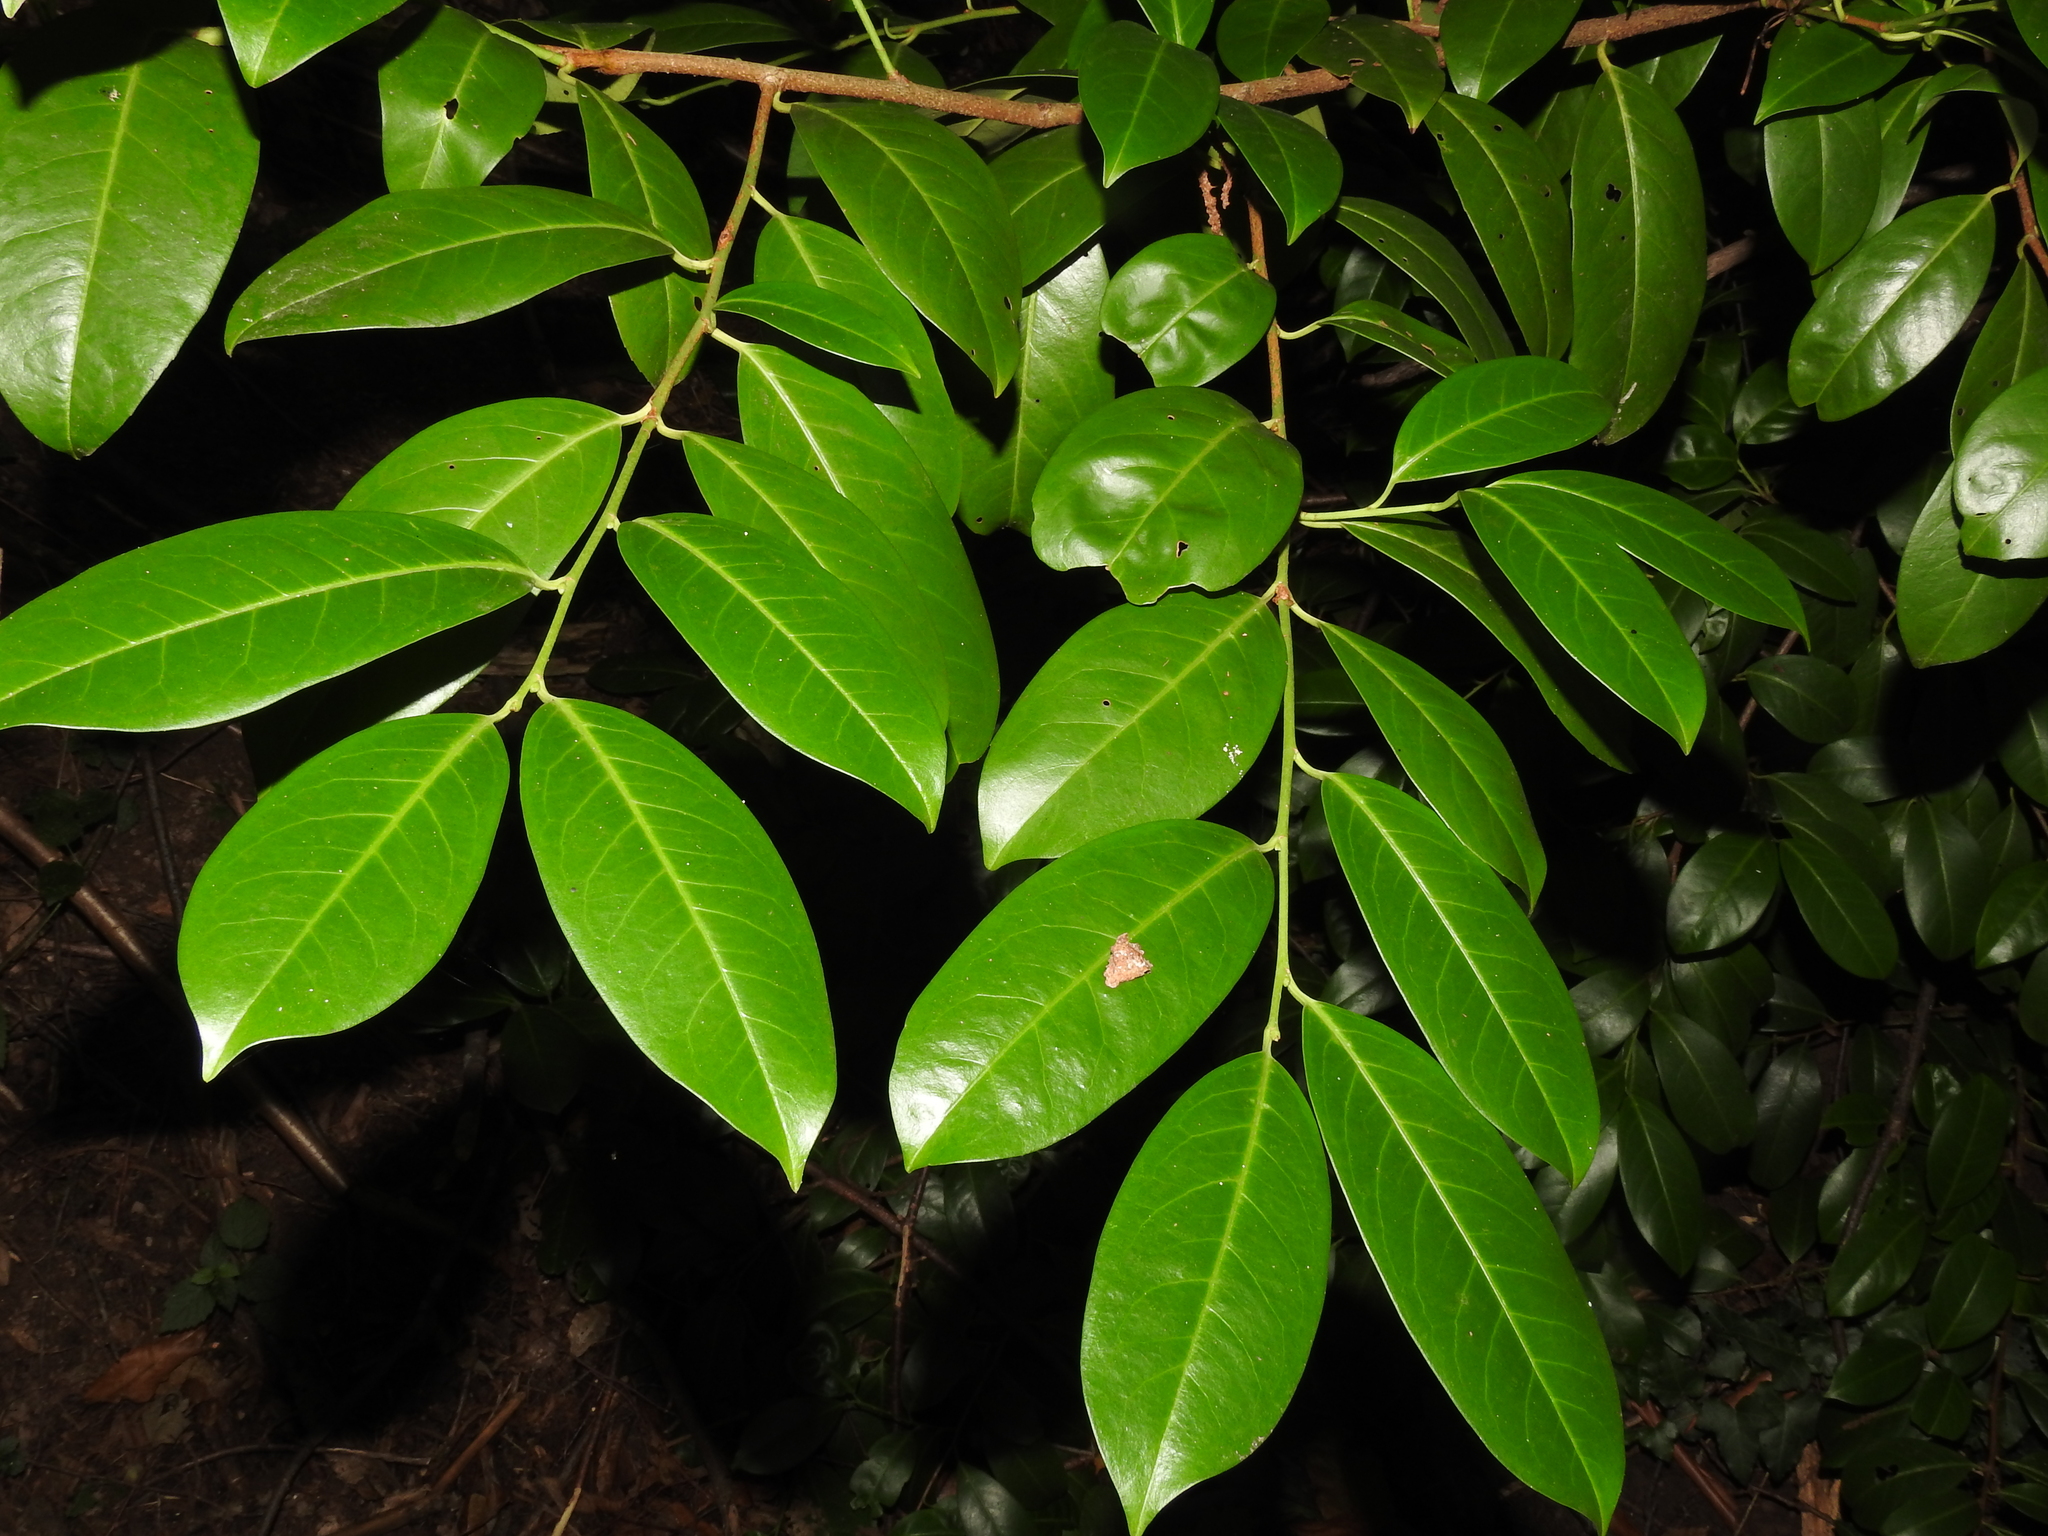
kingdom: Plantae
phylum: Tracheophyta
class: Magnoliopsida
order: Rosales
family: Rosaceae
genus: Prunus
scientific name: Prunus laurocerasus
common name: Cherry laurel
